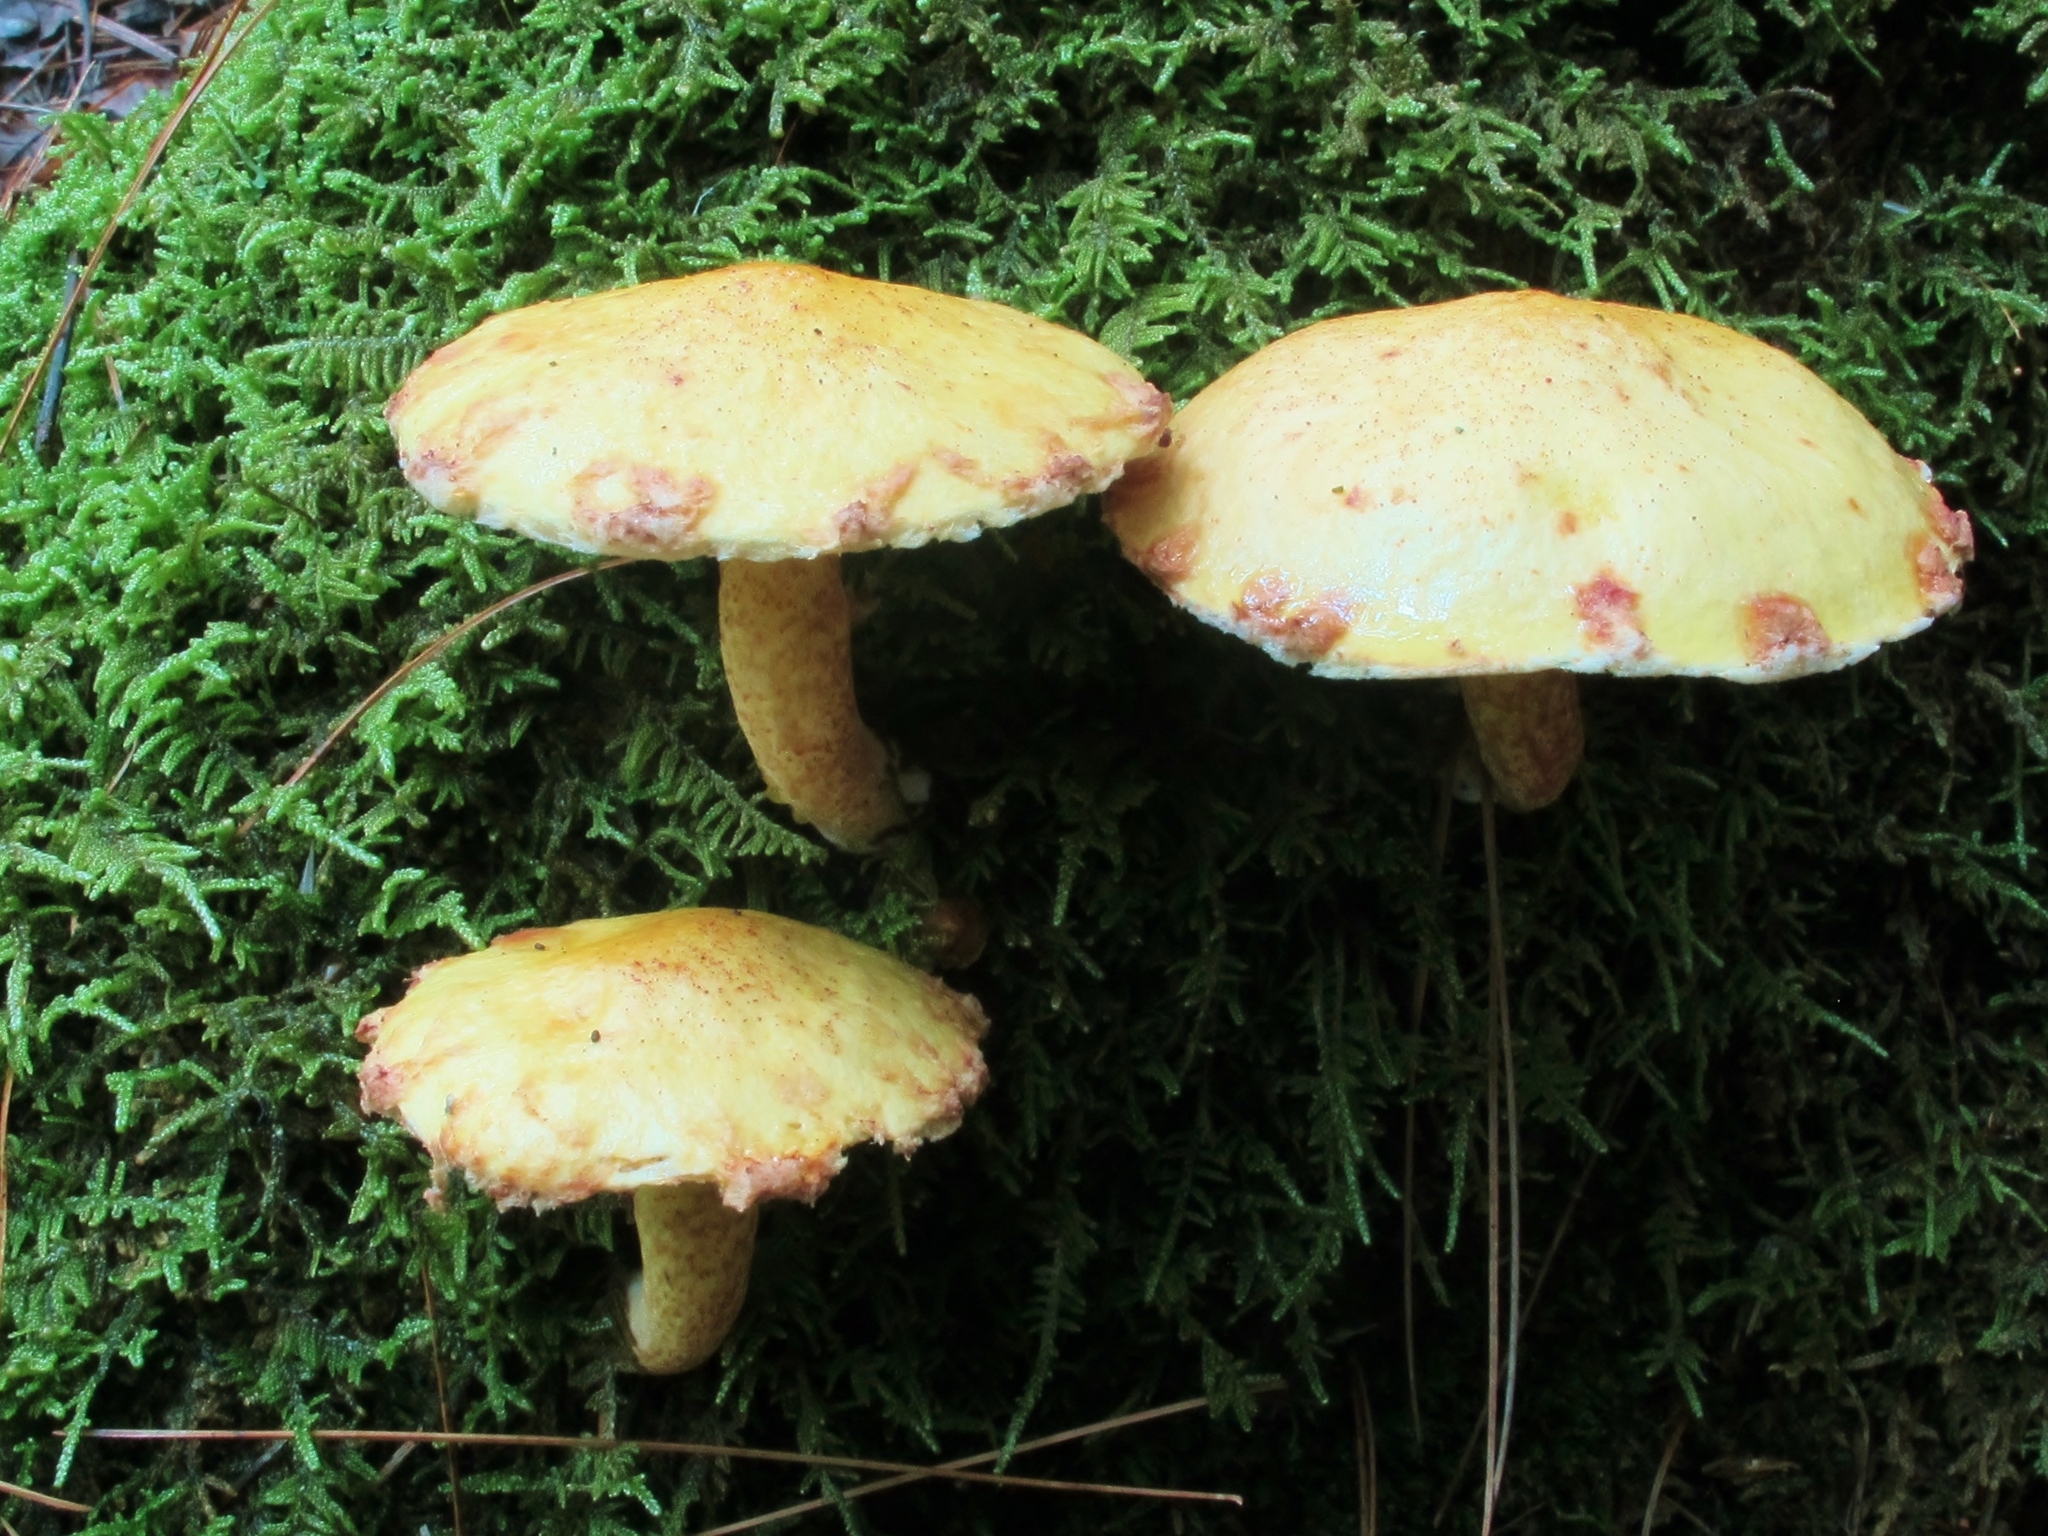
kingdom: Fungi
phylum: Basidiomycota
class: Agaricomycetes
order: Boletales
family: Suillaceae
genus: Suillus
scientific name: Suillus americanus
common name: Chicken fat mushroom
